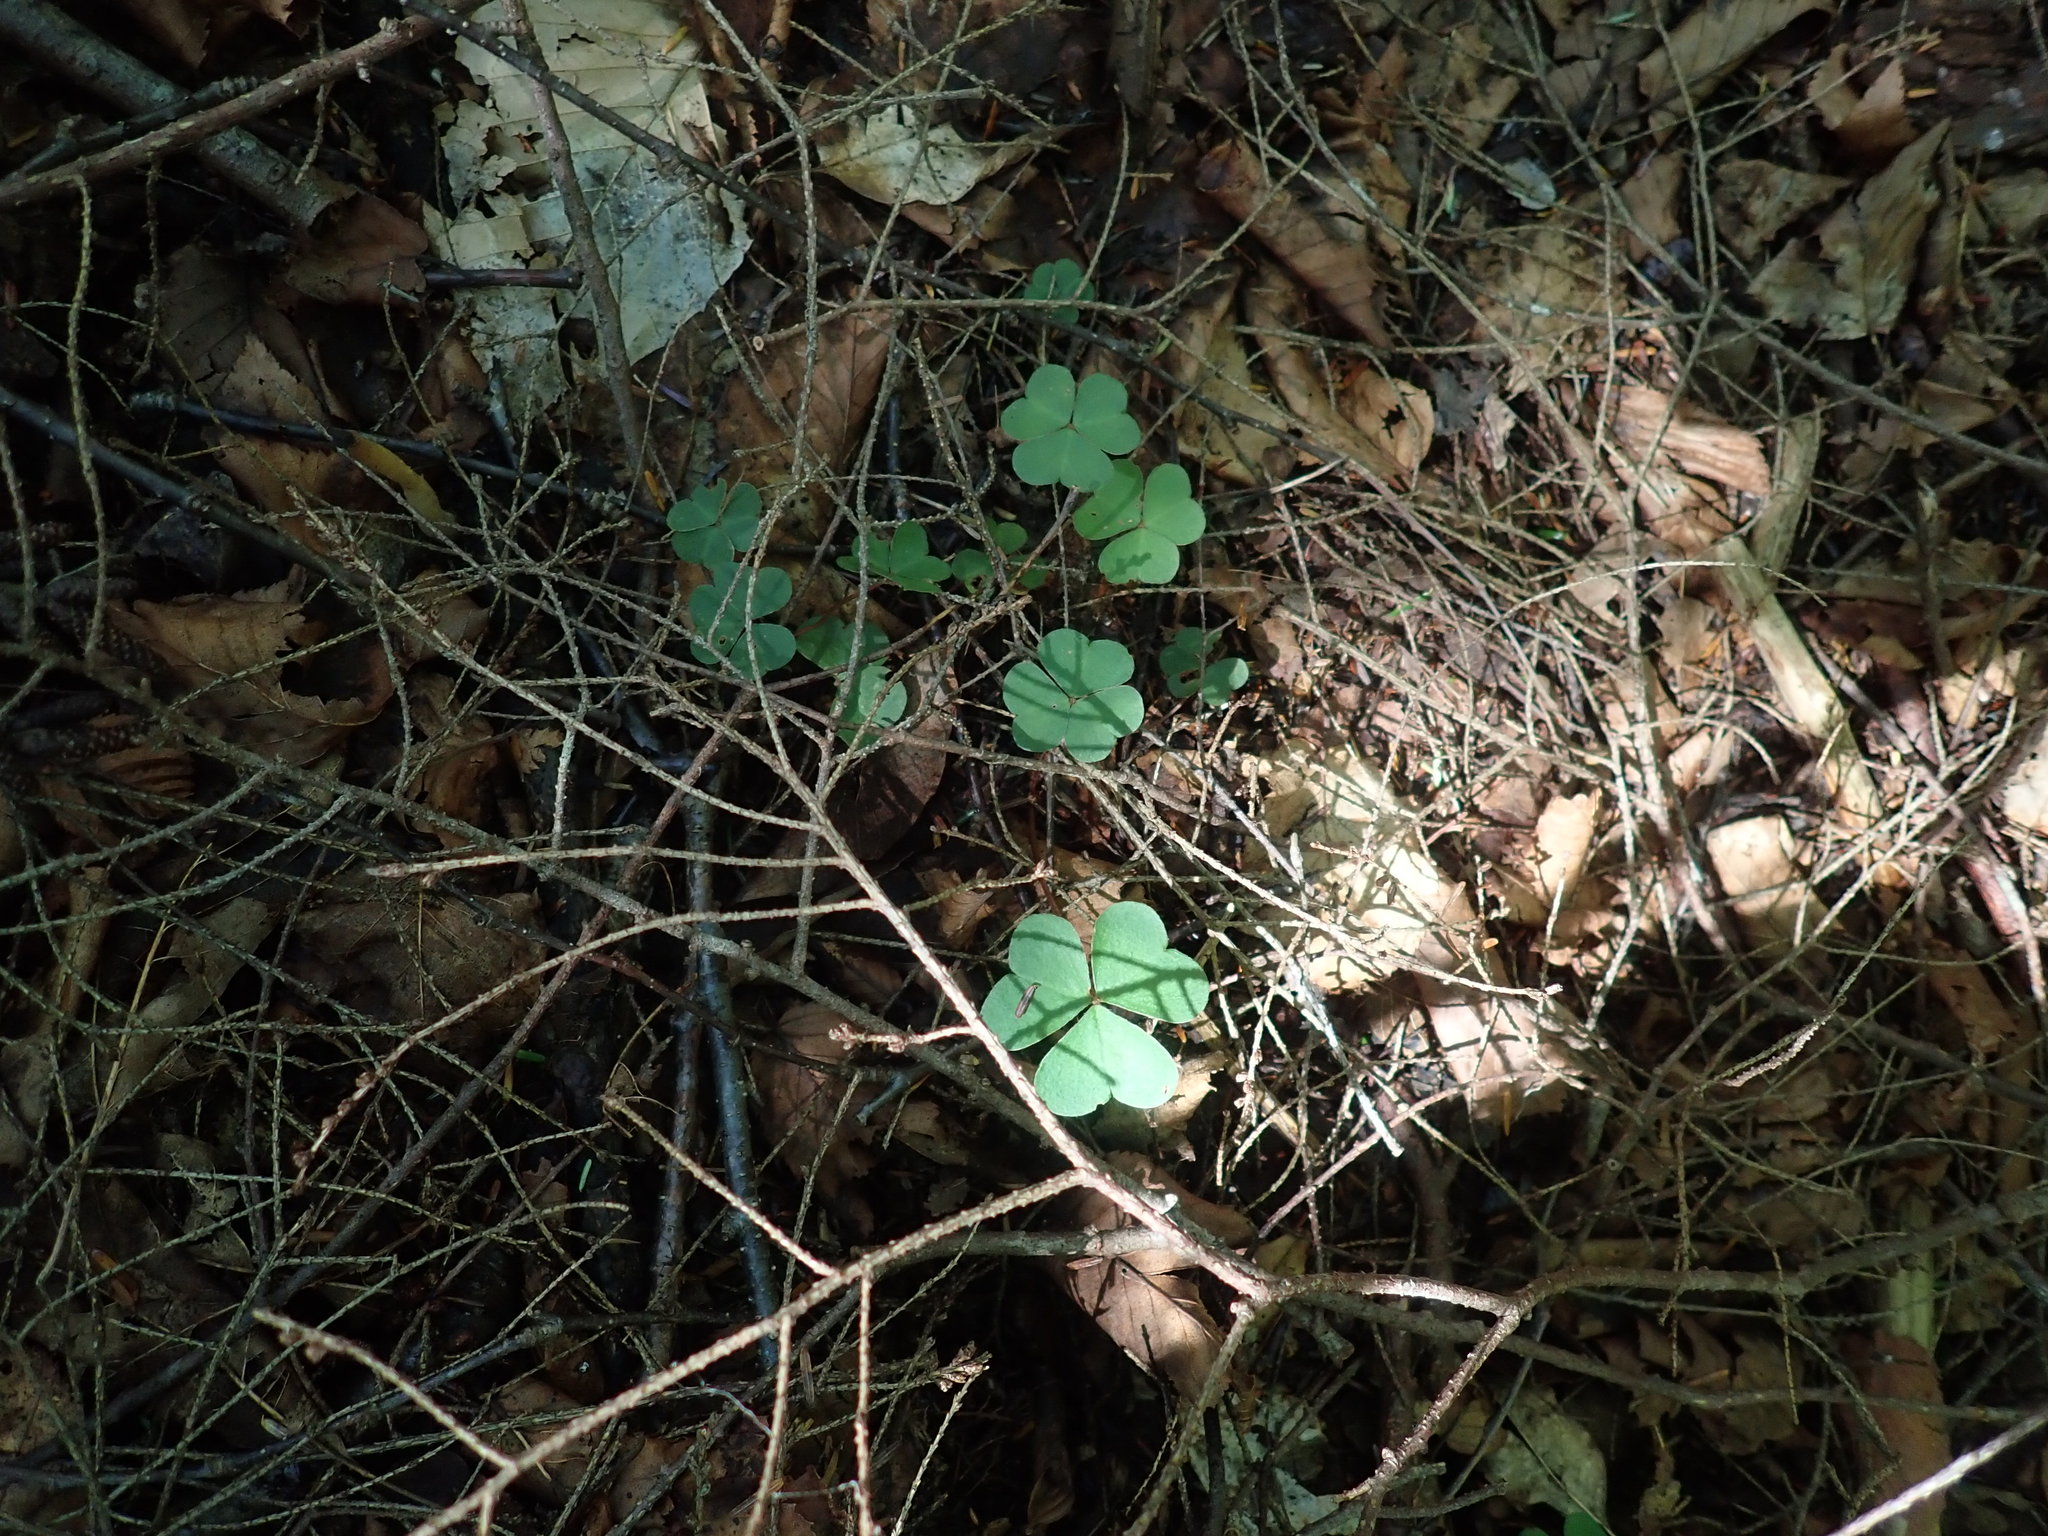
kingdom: Plantae
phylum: Tracheophyta
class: Magnoliopsida
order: Oxalidales
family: Oxalidaceae
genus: Oxalis
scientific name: Oxalis montana
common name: American wood-sorrel
